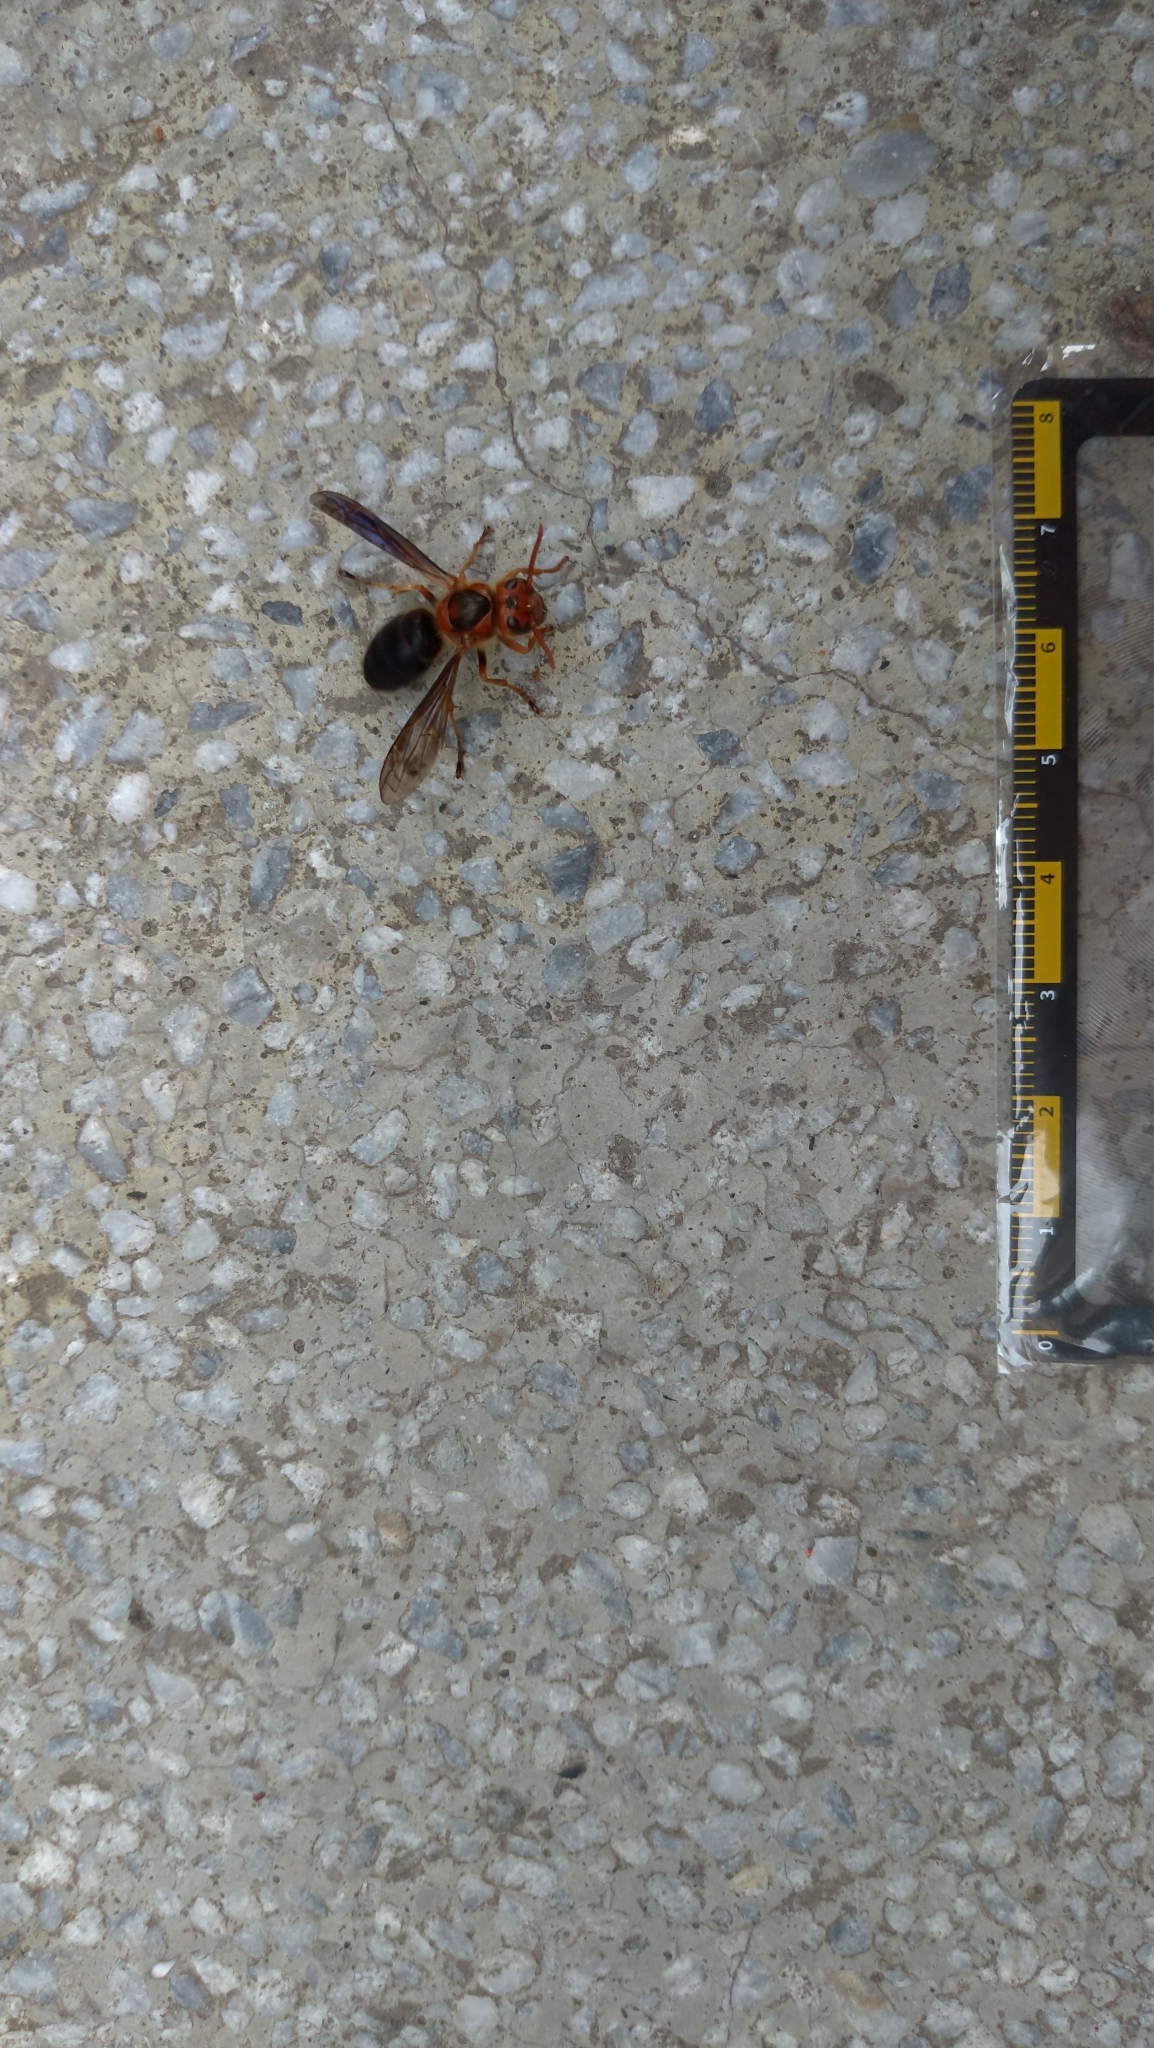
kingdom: Animalia
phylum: Arthropoda
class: Insecta
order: Hymenoptera
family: Vespidae
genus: Vespa
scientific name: Vespa basalis
